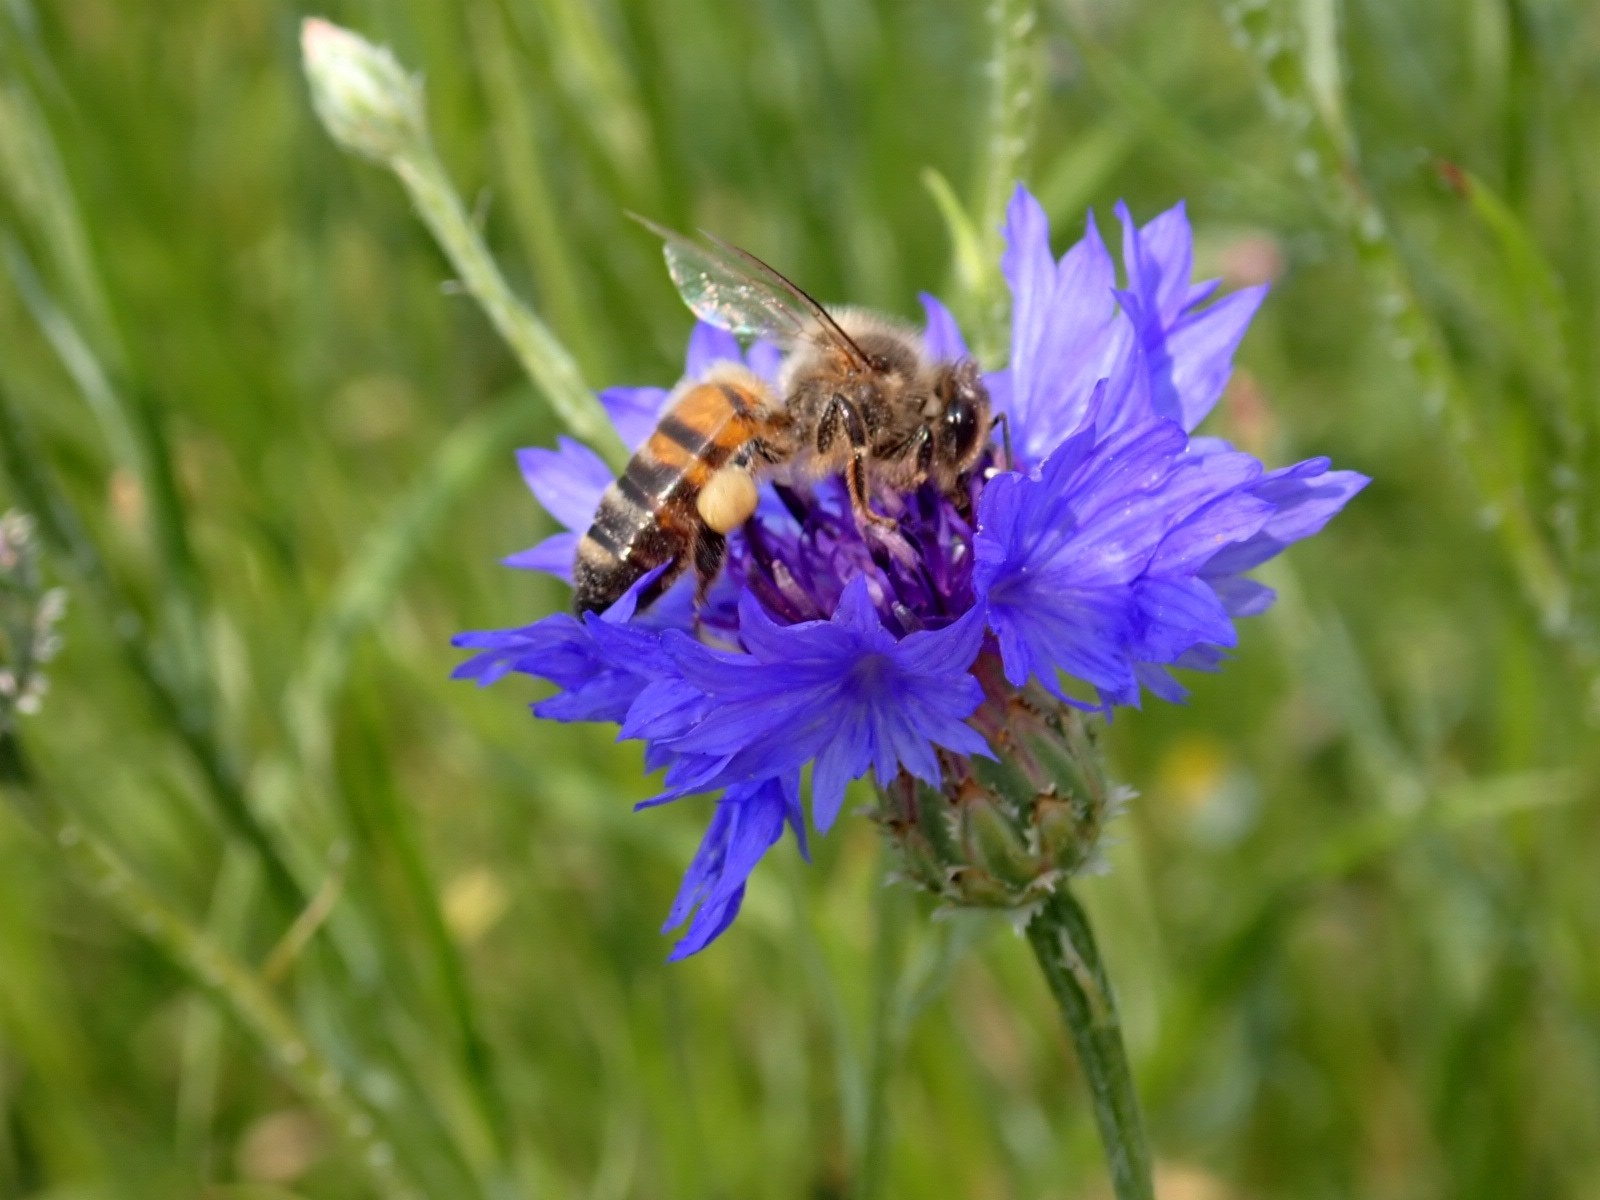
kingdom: Animalia
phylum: Arthropoda
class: Insecta
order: Hymenoptera
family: Apidae
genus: Apis
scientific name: Apis mellifera
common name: Honey bee
